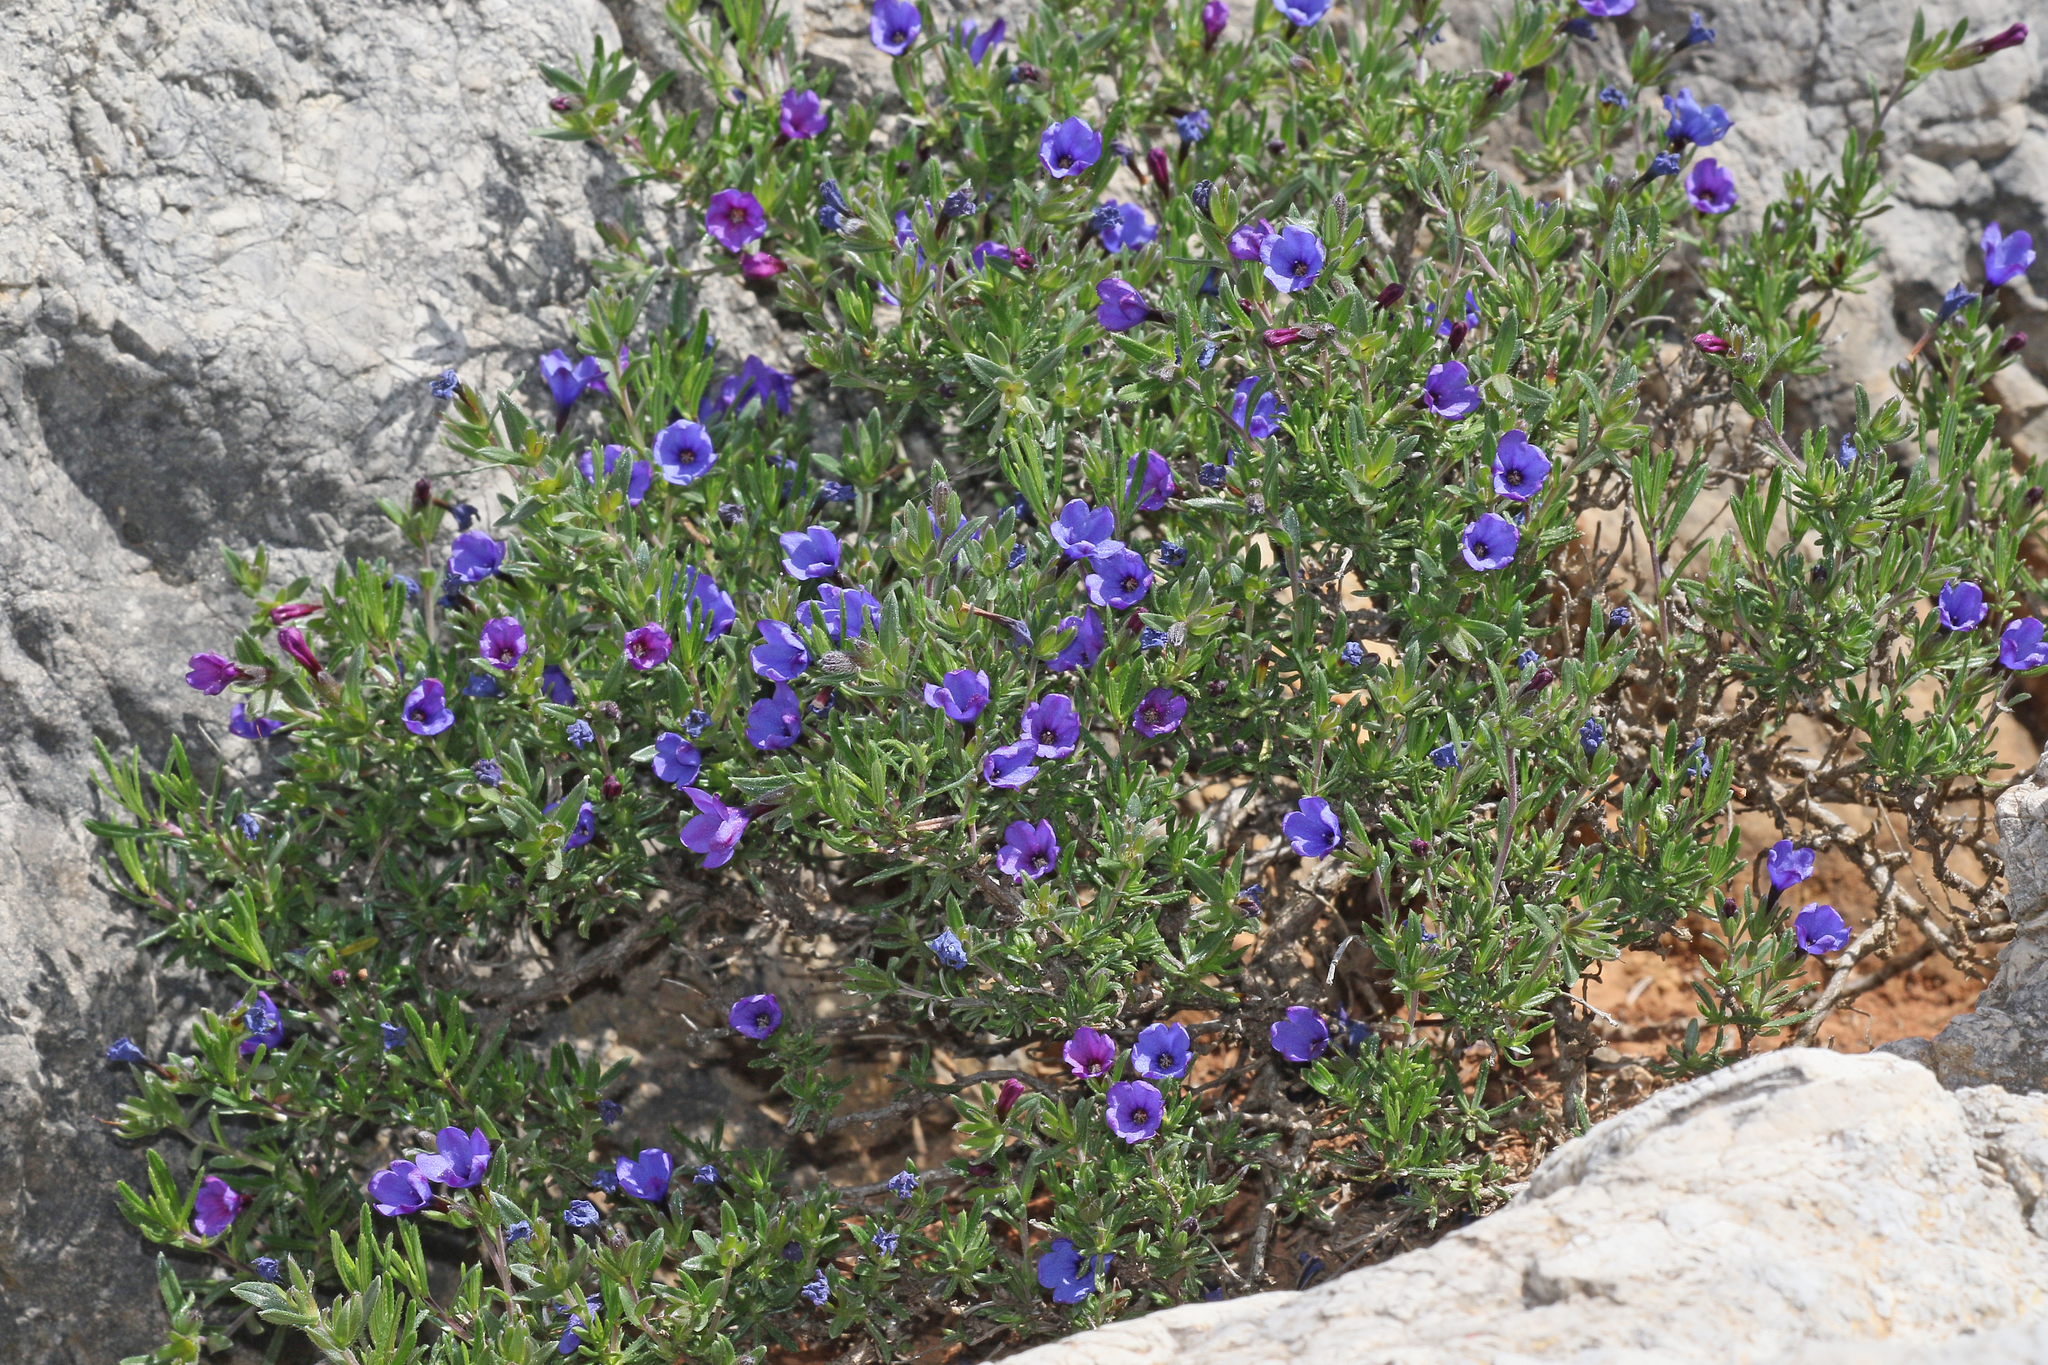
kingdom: Plantae
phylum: Tracheophyta
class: Magnoliopsida
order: Boraginales
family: Boraginaceae
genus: Lithodora
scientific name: Lithodora fruticosa
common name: Shrubby gromwell
